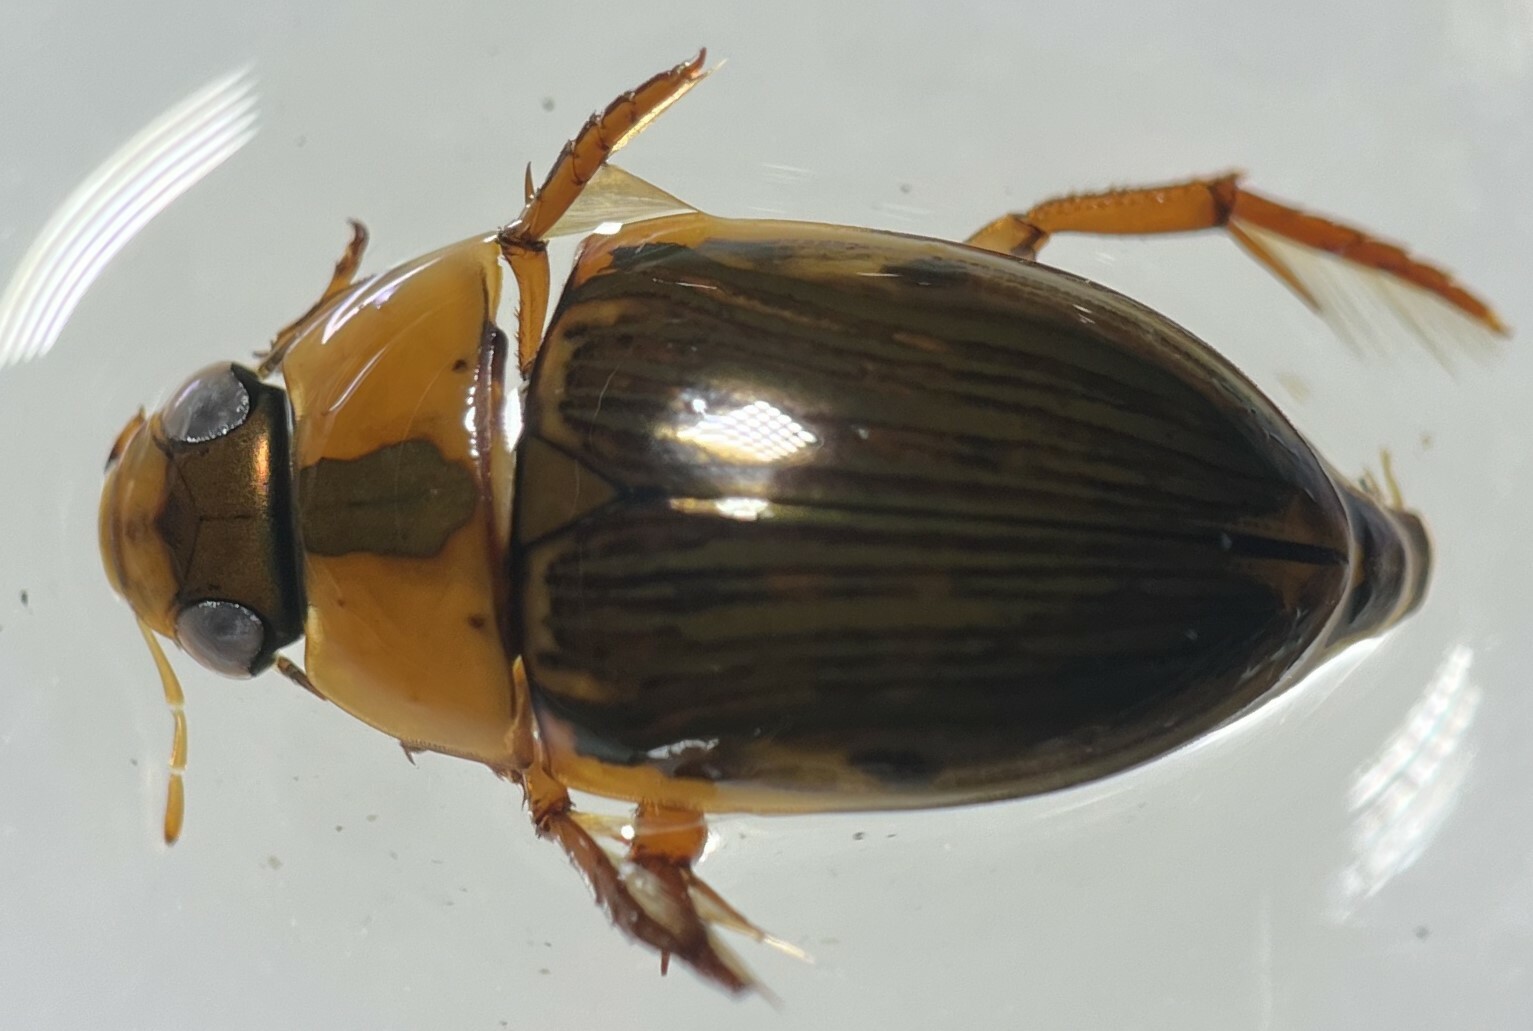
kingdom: Animalia
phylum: Arthropoda
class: Insecta
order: Coleoptera
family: Hydrophilidae
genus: Tropisternus
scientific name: Tropisternus collaris
